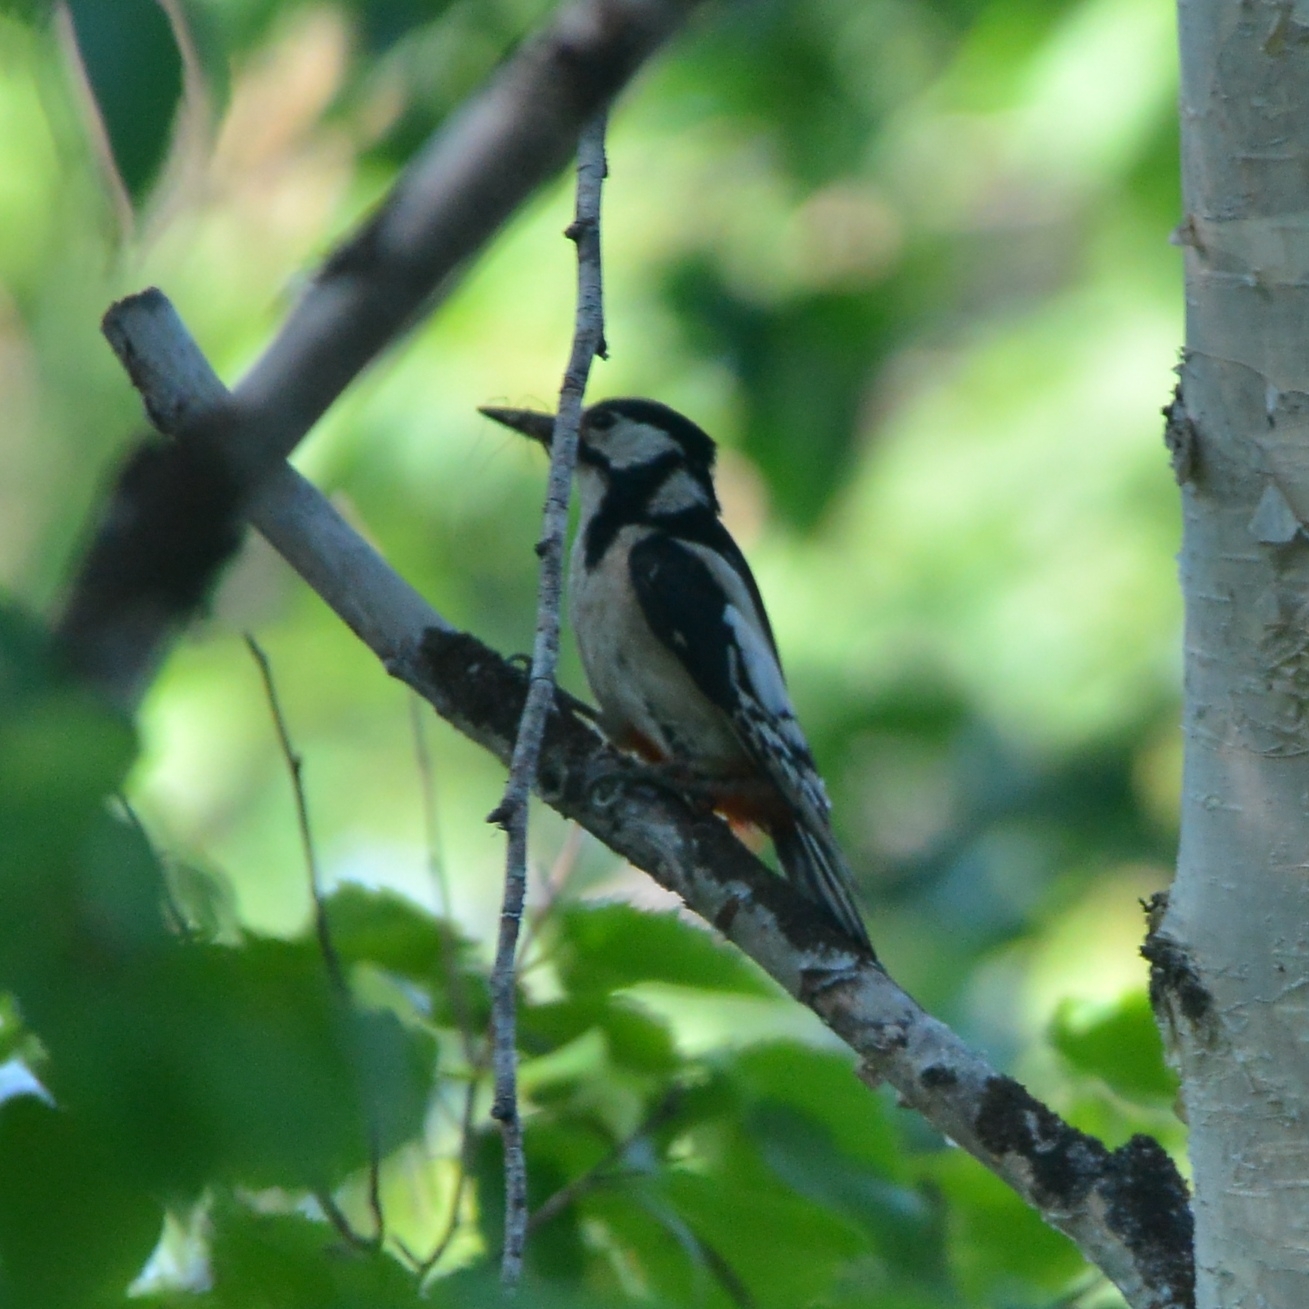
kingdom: Animalia
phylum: Chordata
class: Aves
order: Piciformes
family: Picidae
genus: Dendrocopos
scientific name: Dendrocopos major
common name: Great spotted woodpecker
